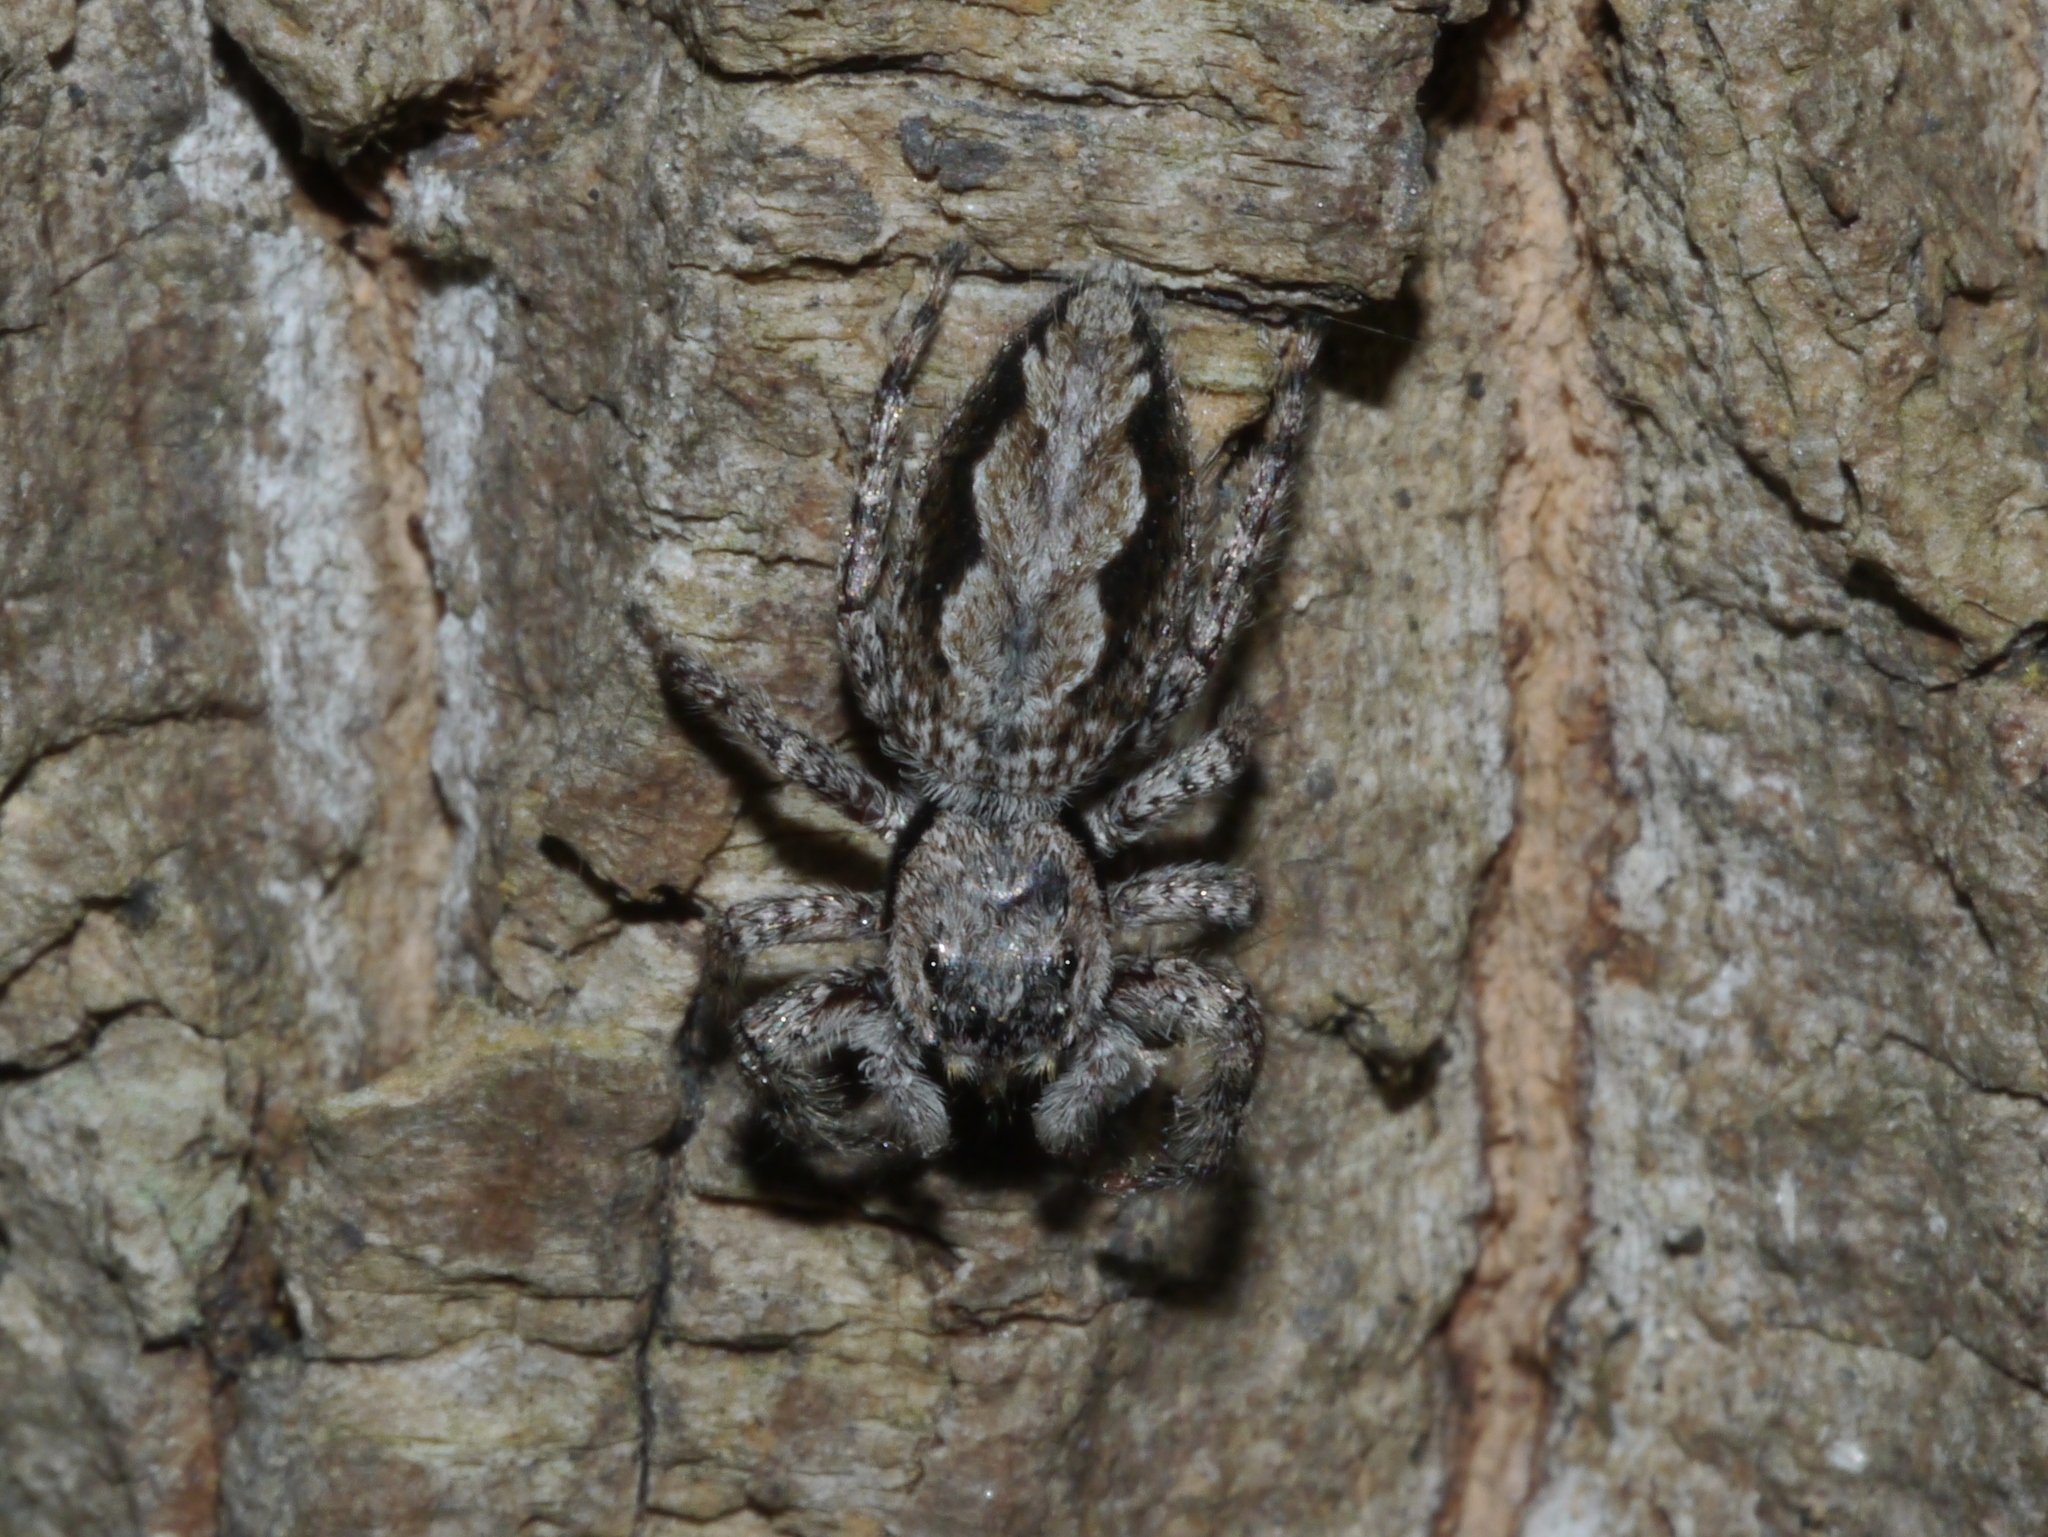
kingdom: Animalia
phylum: Arthropoda
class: Arachnida
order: Araneae
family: Salticidae
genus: Platycryptus
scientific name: Platycryptus undatus
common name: Tan jumping spider
